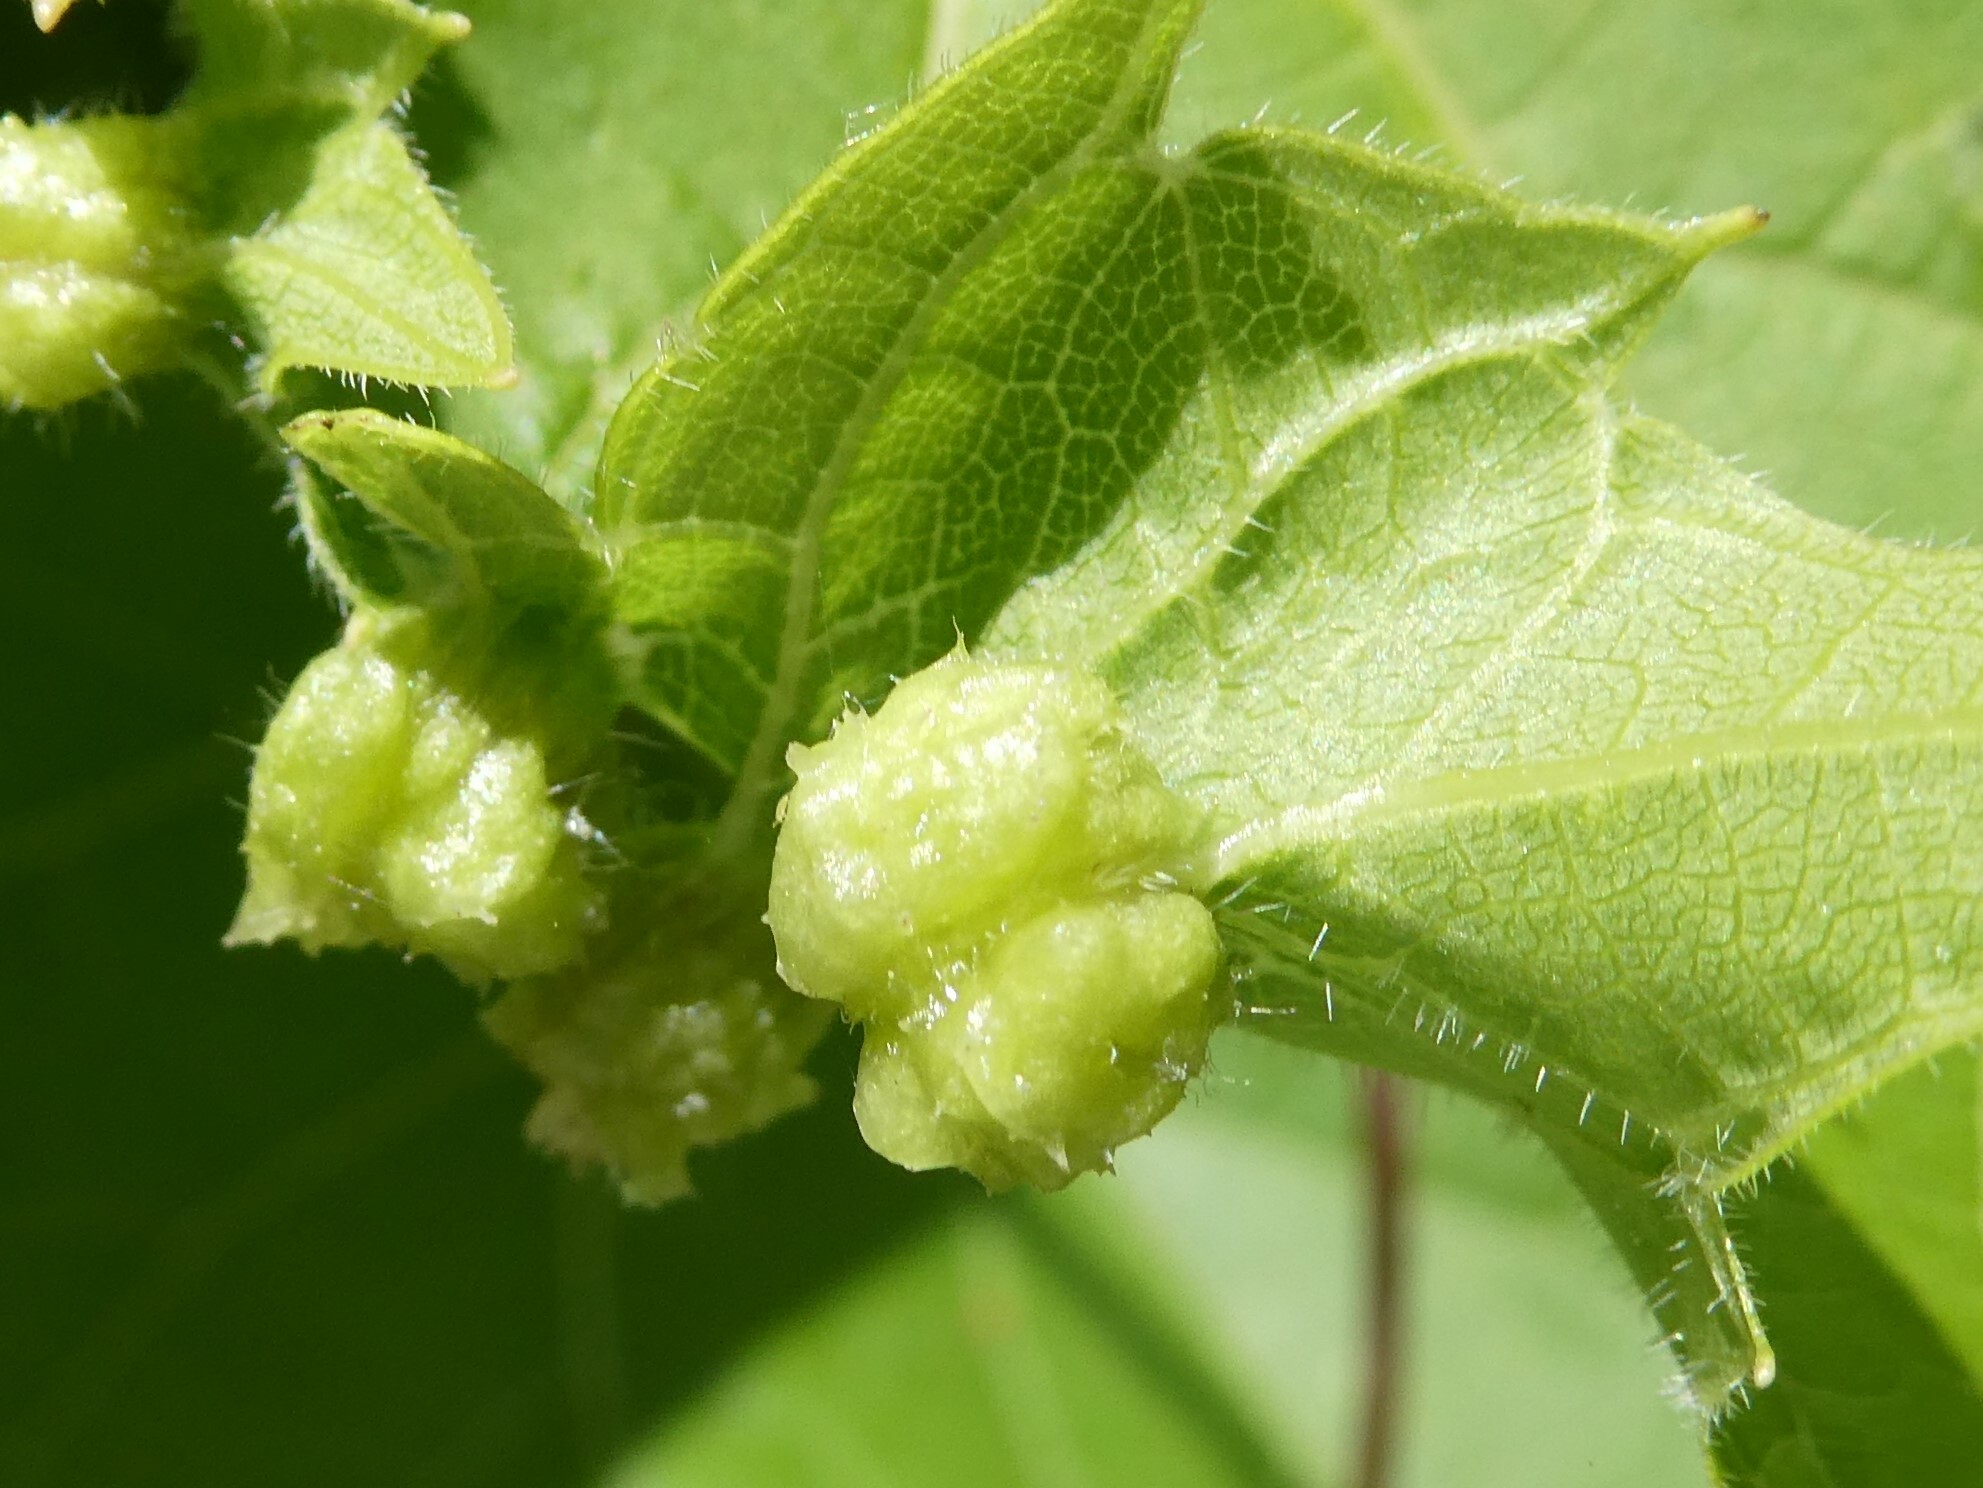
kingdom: Animalia
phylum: Arthropoda
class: Insecta
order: Hemiptera
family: Phylloxeridae
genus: Daktulosphaira
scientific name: Daktulosphaira vitifoliae
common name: Grape phylloxera
